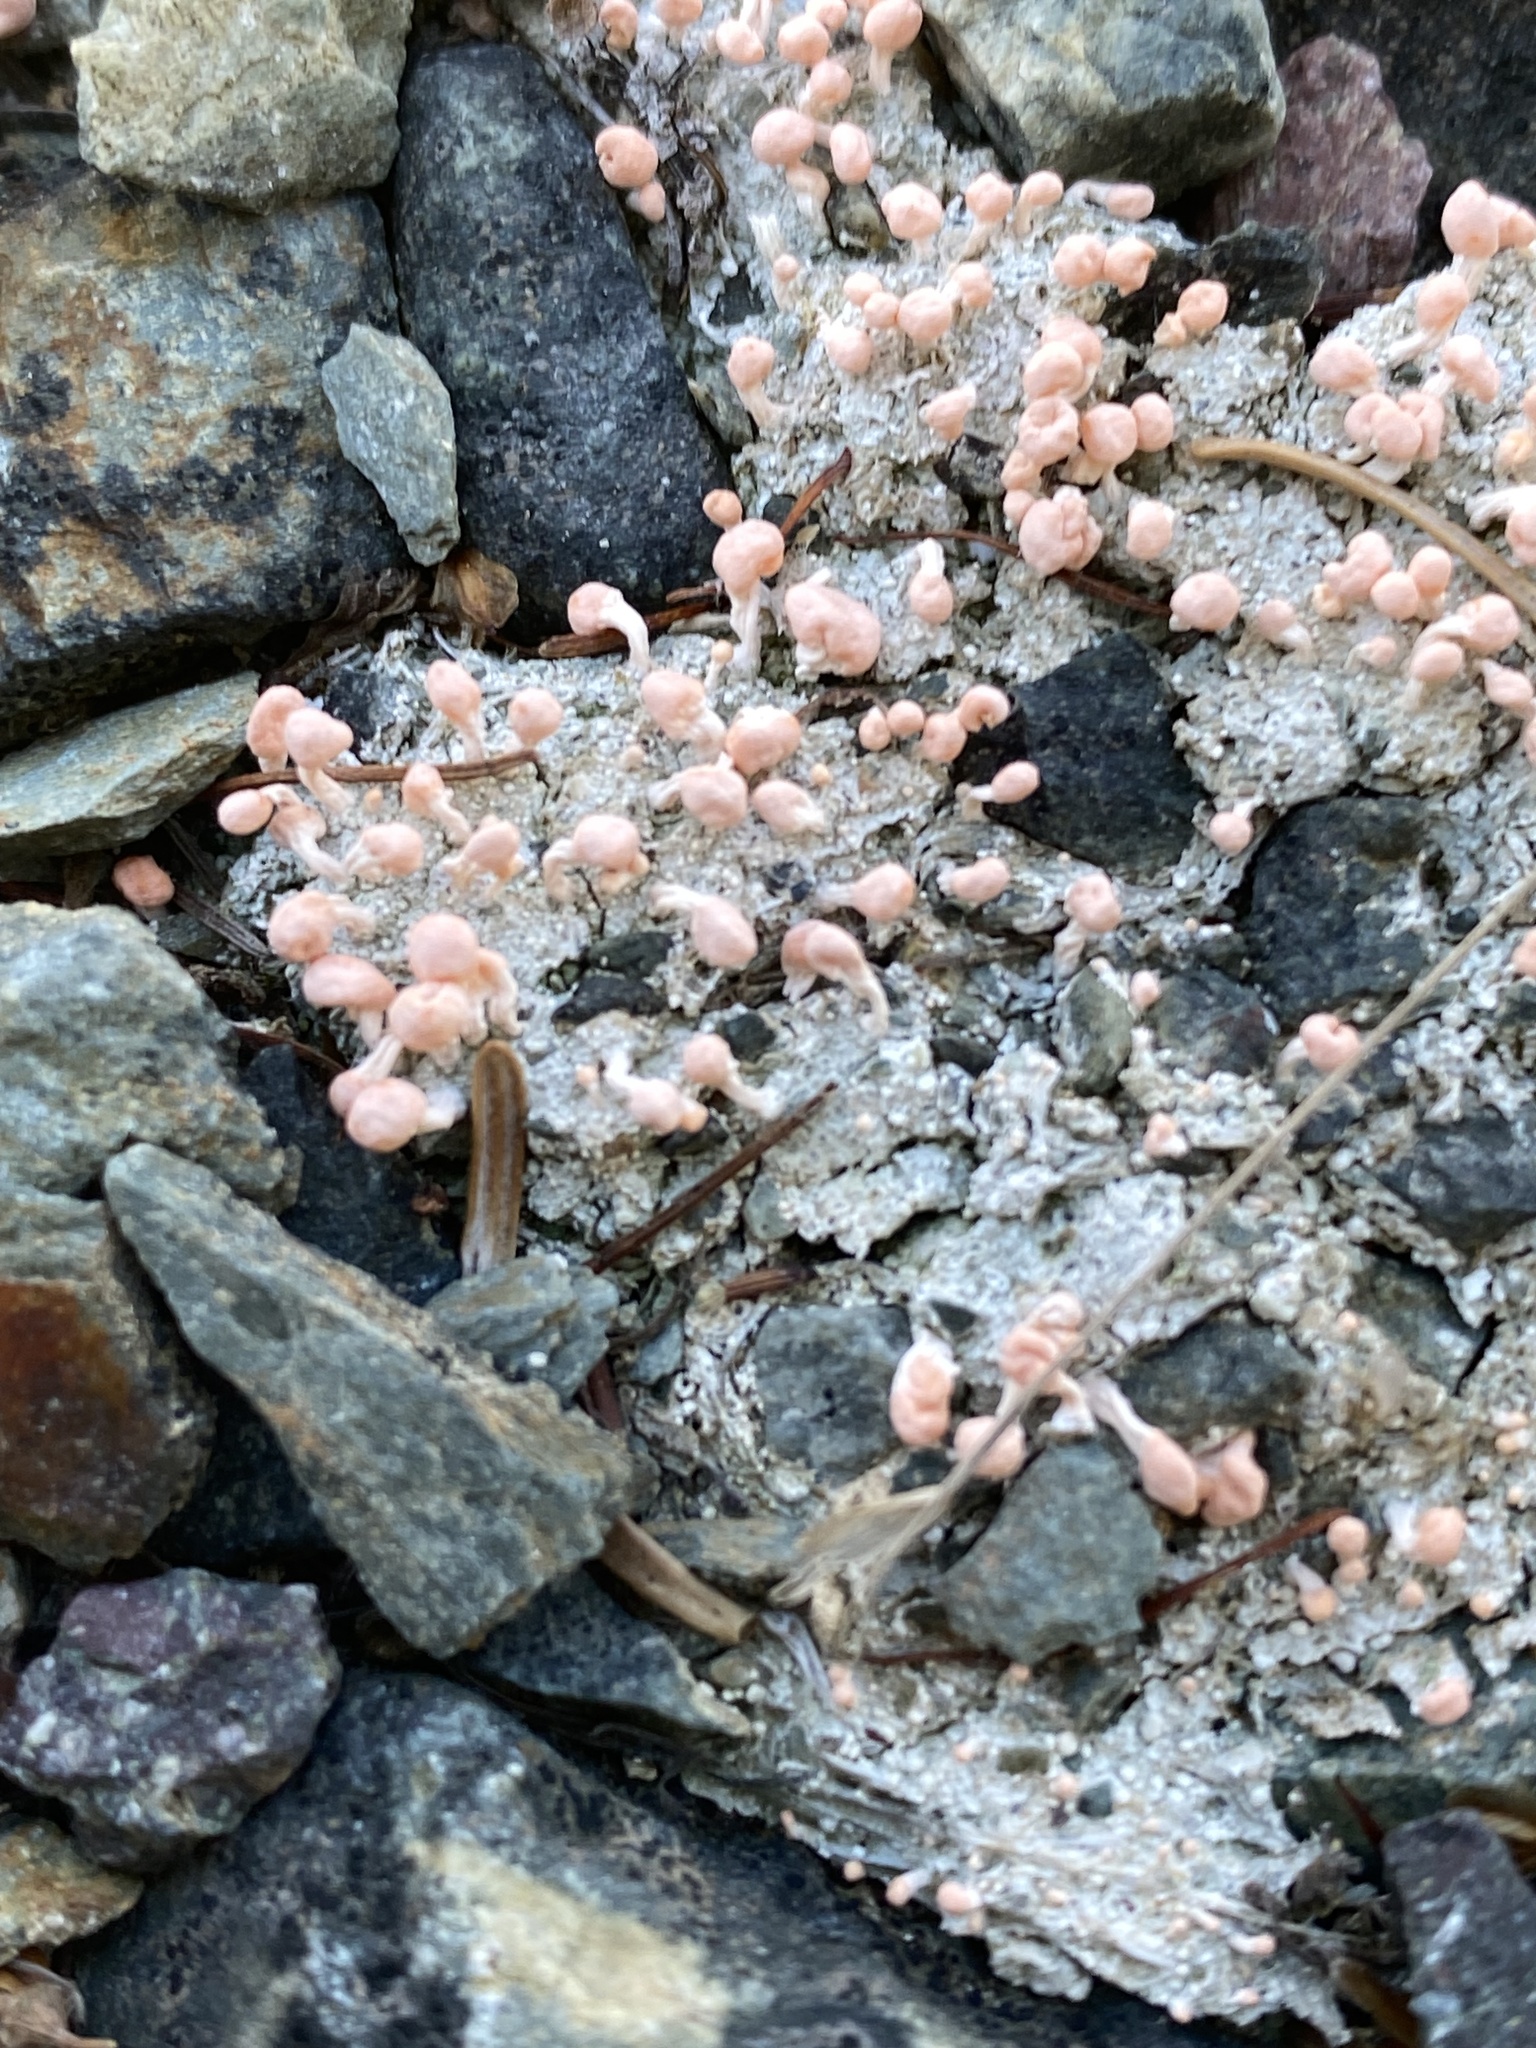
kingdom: Fungi
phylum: Ascomycota
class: Lecanoromycetes
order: Pertusariales
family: Icmadophilaceae
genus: Dibaeis
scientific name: Dibaeis baeomyces
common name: Pink earth lichen
